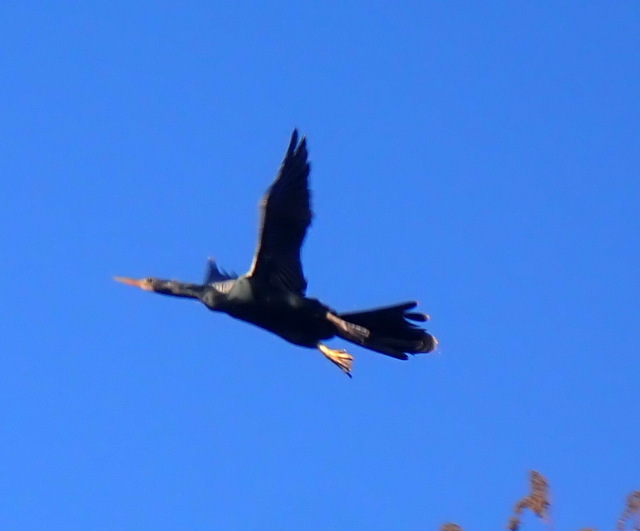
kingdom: Animalia
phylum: Chordata
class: Aves
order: Suliformes
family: Anhingidae
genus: Anhinga
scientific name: Anhinga anhinga
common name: Anhinga
